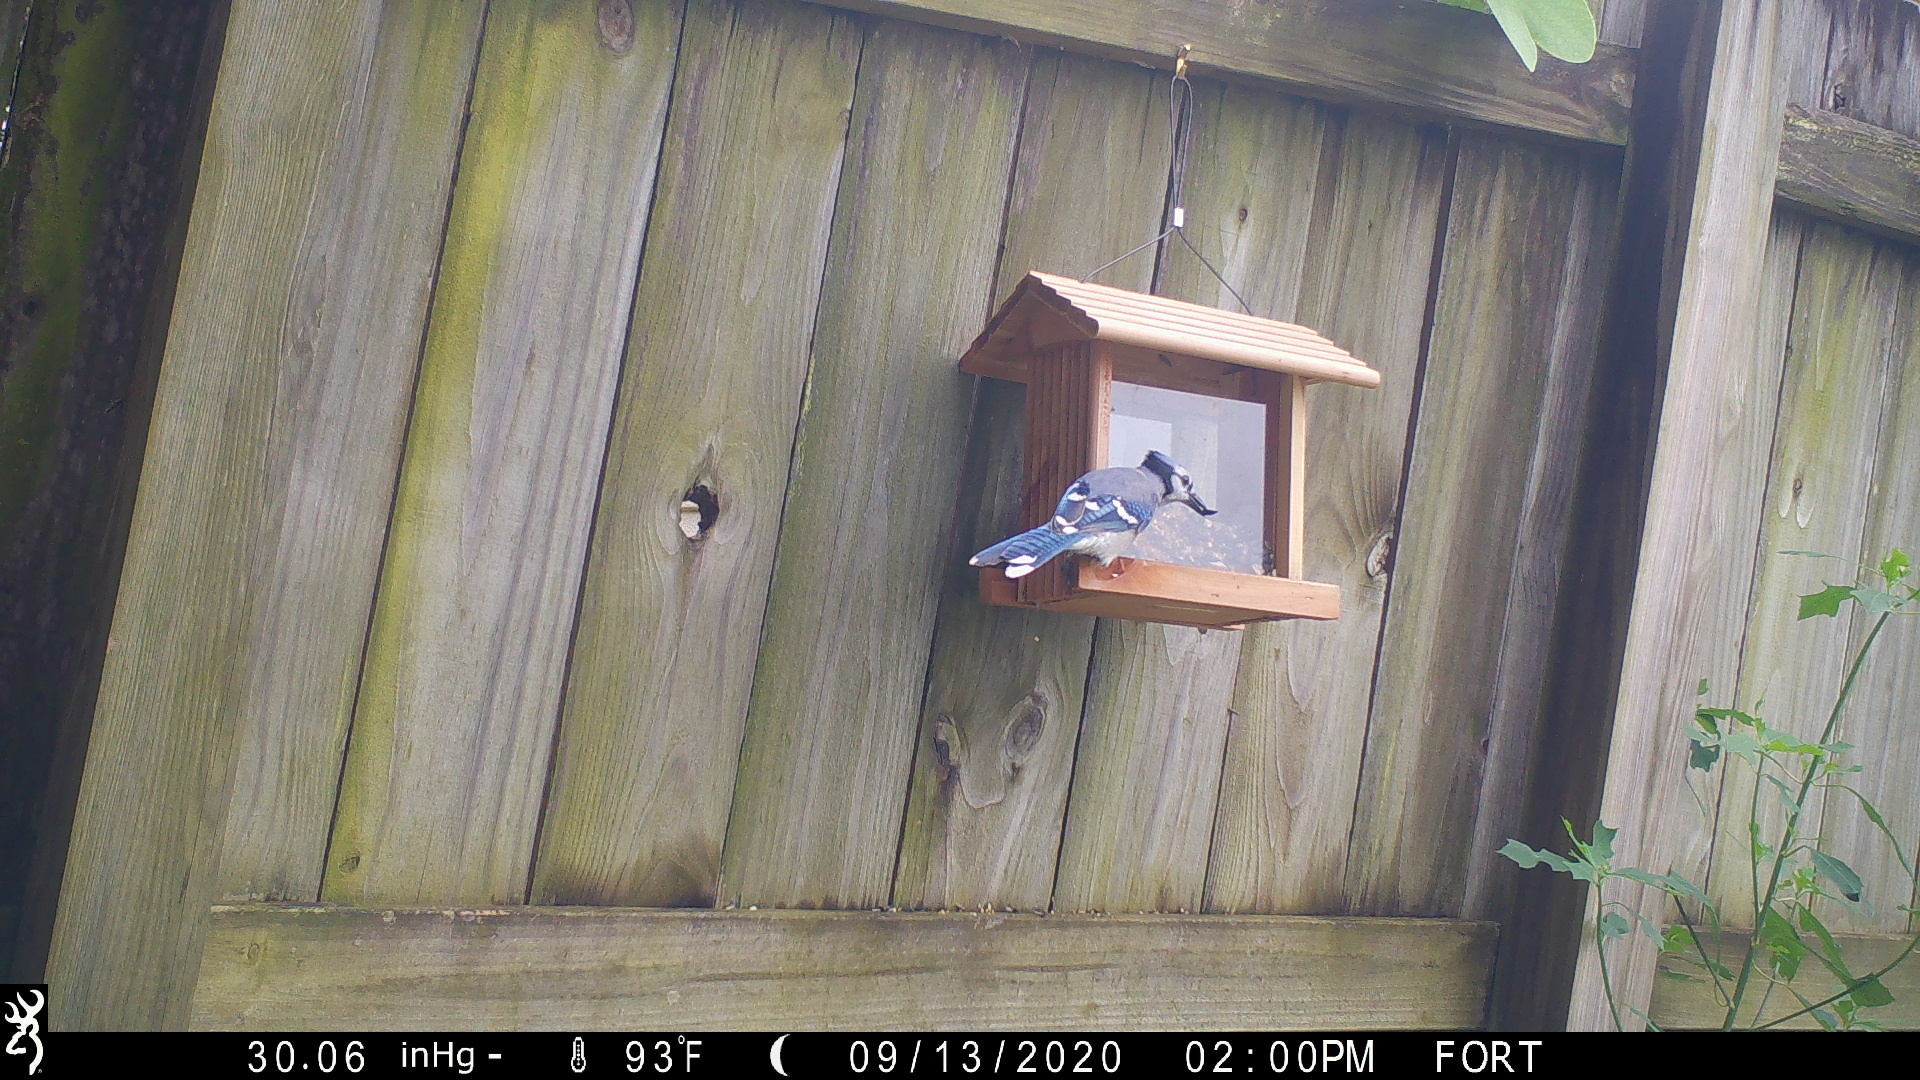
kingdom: Animalia
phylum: Chordata
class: Aves
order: Passeriformes
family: Corvidae
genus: Cyanocitta
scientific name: Cyanocitta cristata
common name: Blue jay
